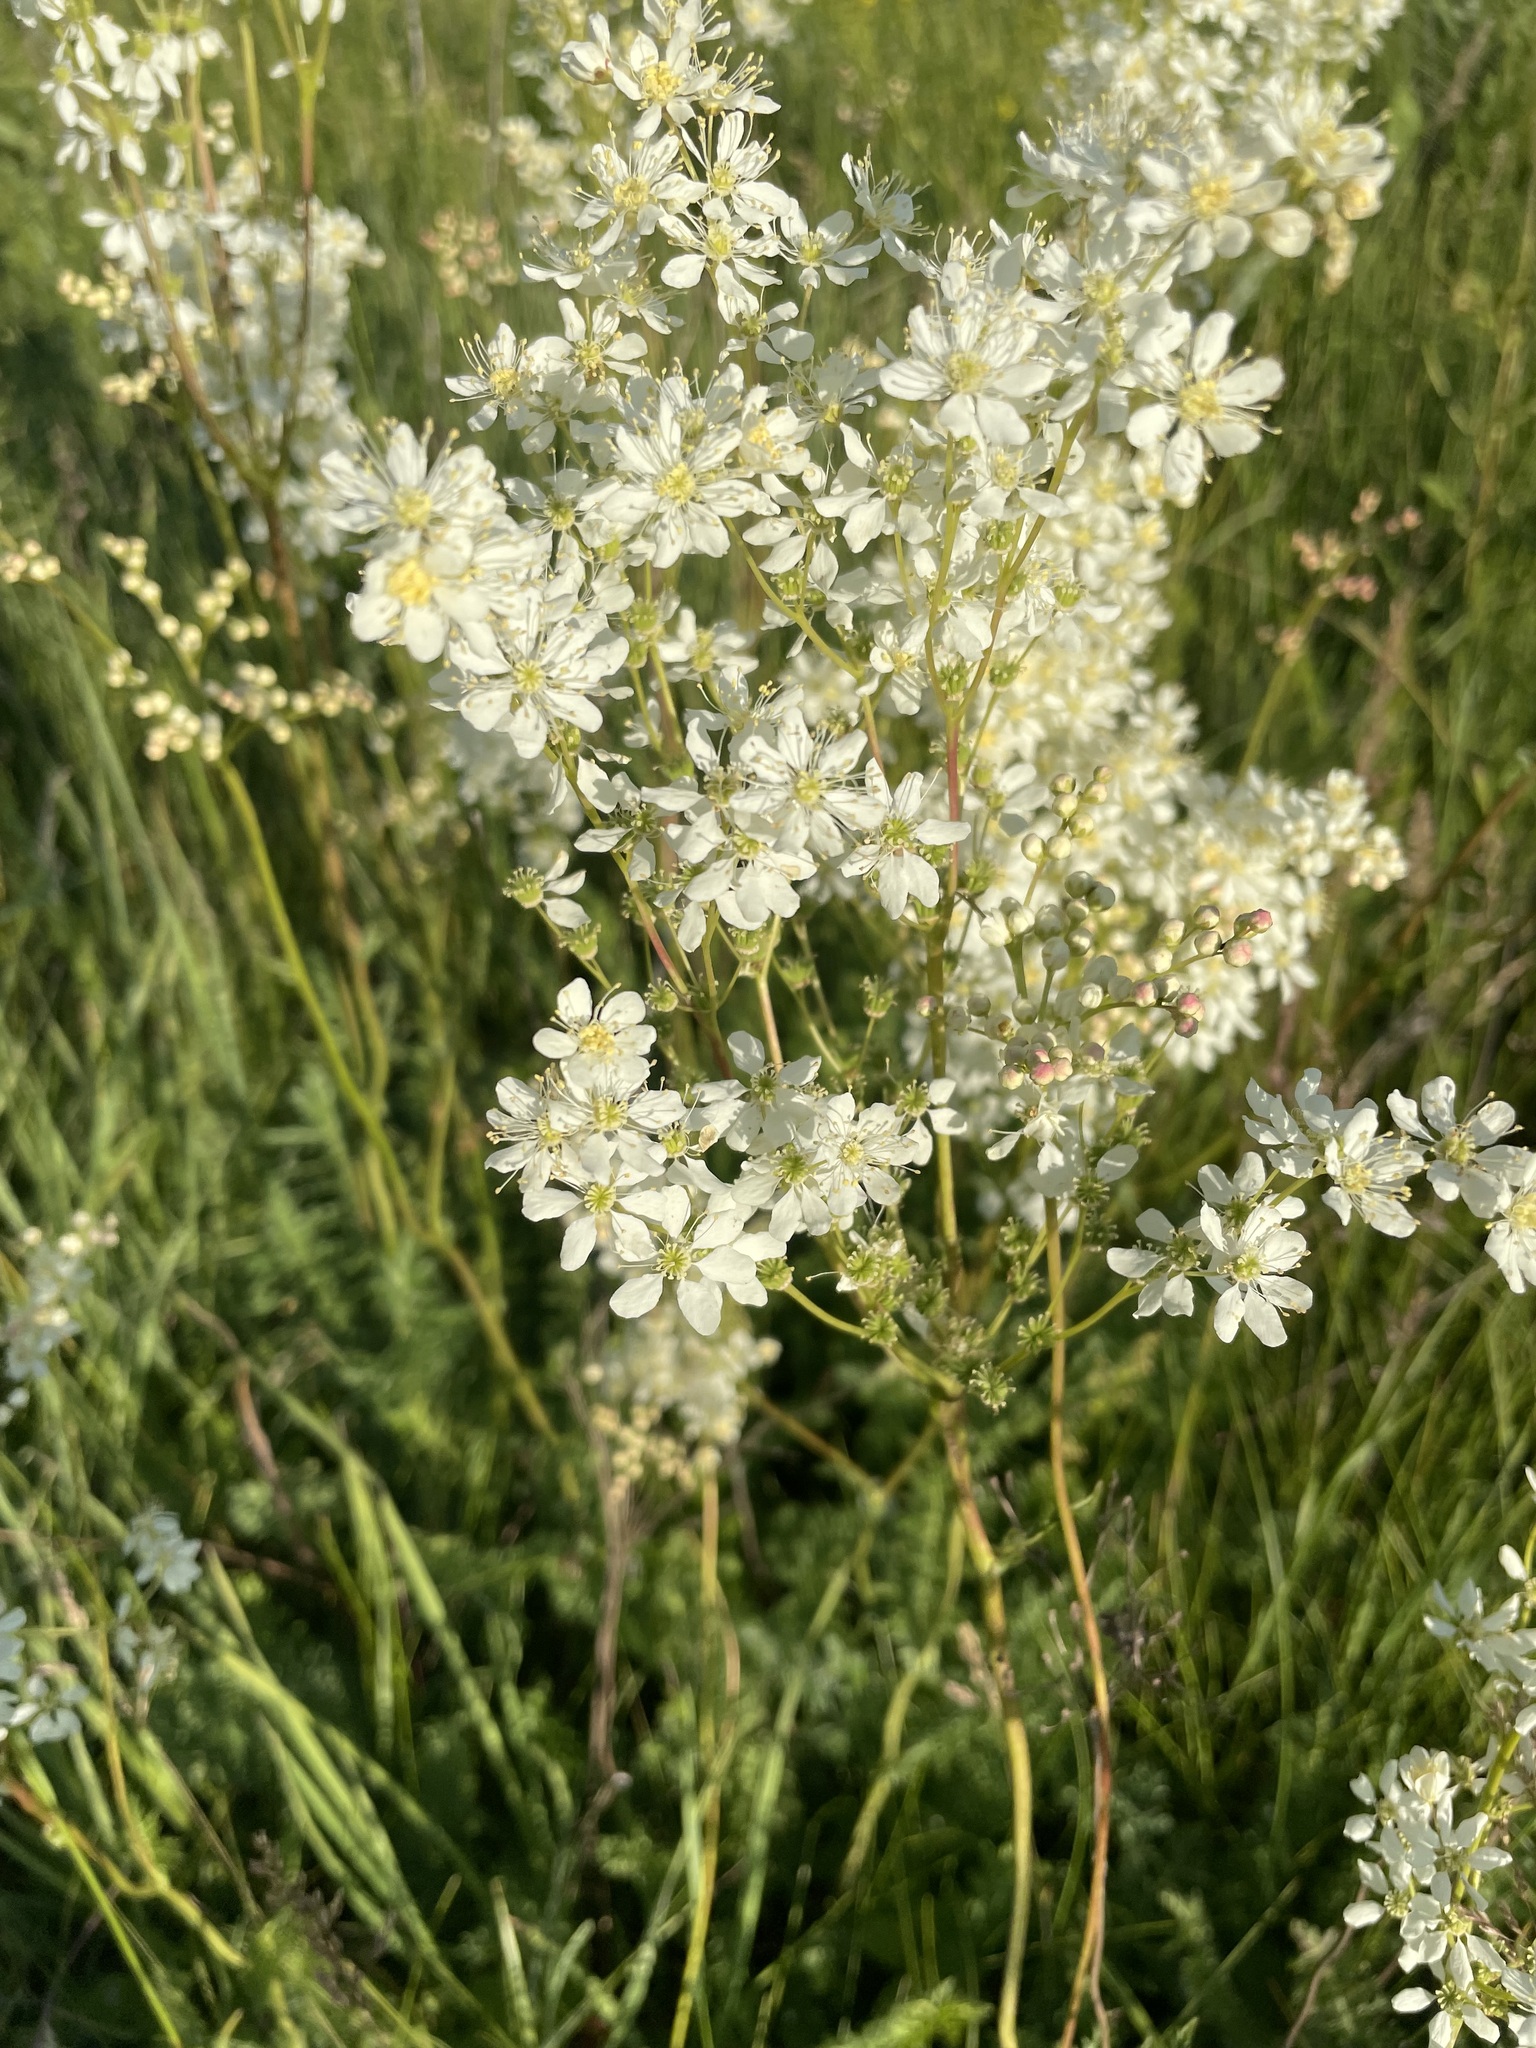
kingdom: Plantae
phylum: Tracheophyta
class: Magnoliopsida
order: Rosales
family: Rosaceae
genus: Filipendula
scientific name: Filipendula vulgaris
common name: Dropwort
